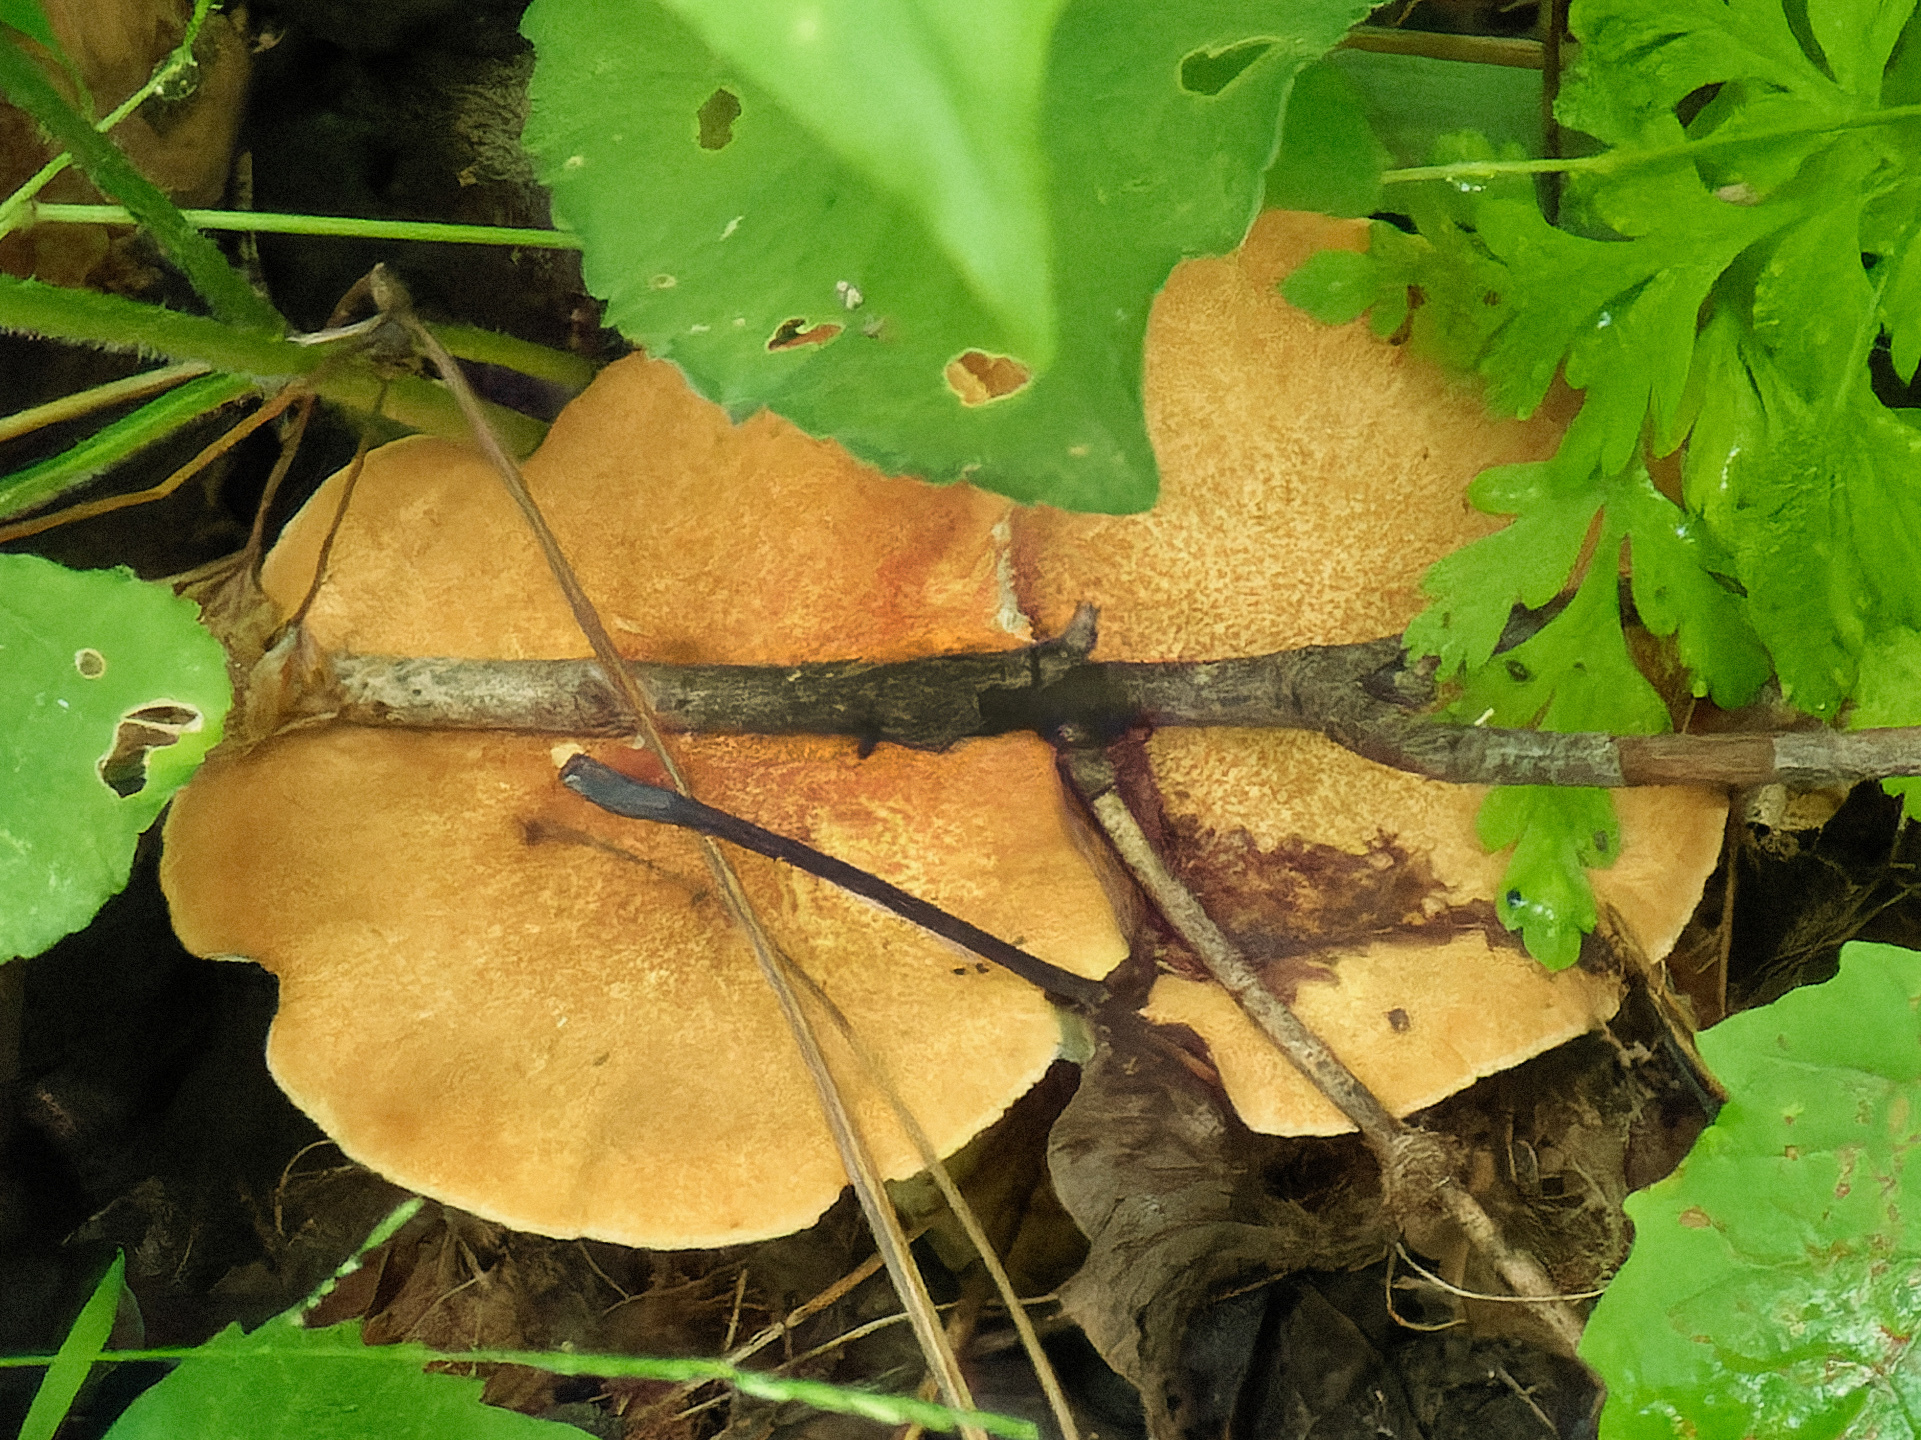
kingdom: Fungi
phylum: Basidiomycota
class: Agaricomycetes
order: Polyporales
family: Polyporaceae
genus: Polyporus
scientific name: Polyporus radicatus
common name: Rooting polypore
